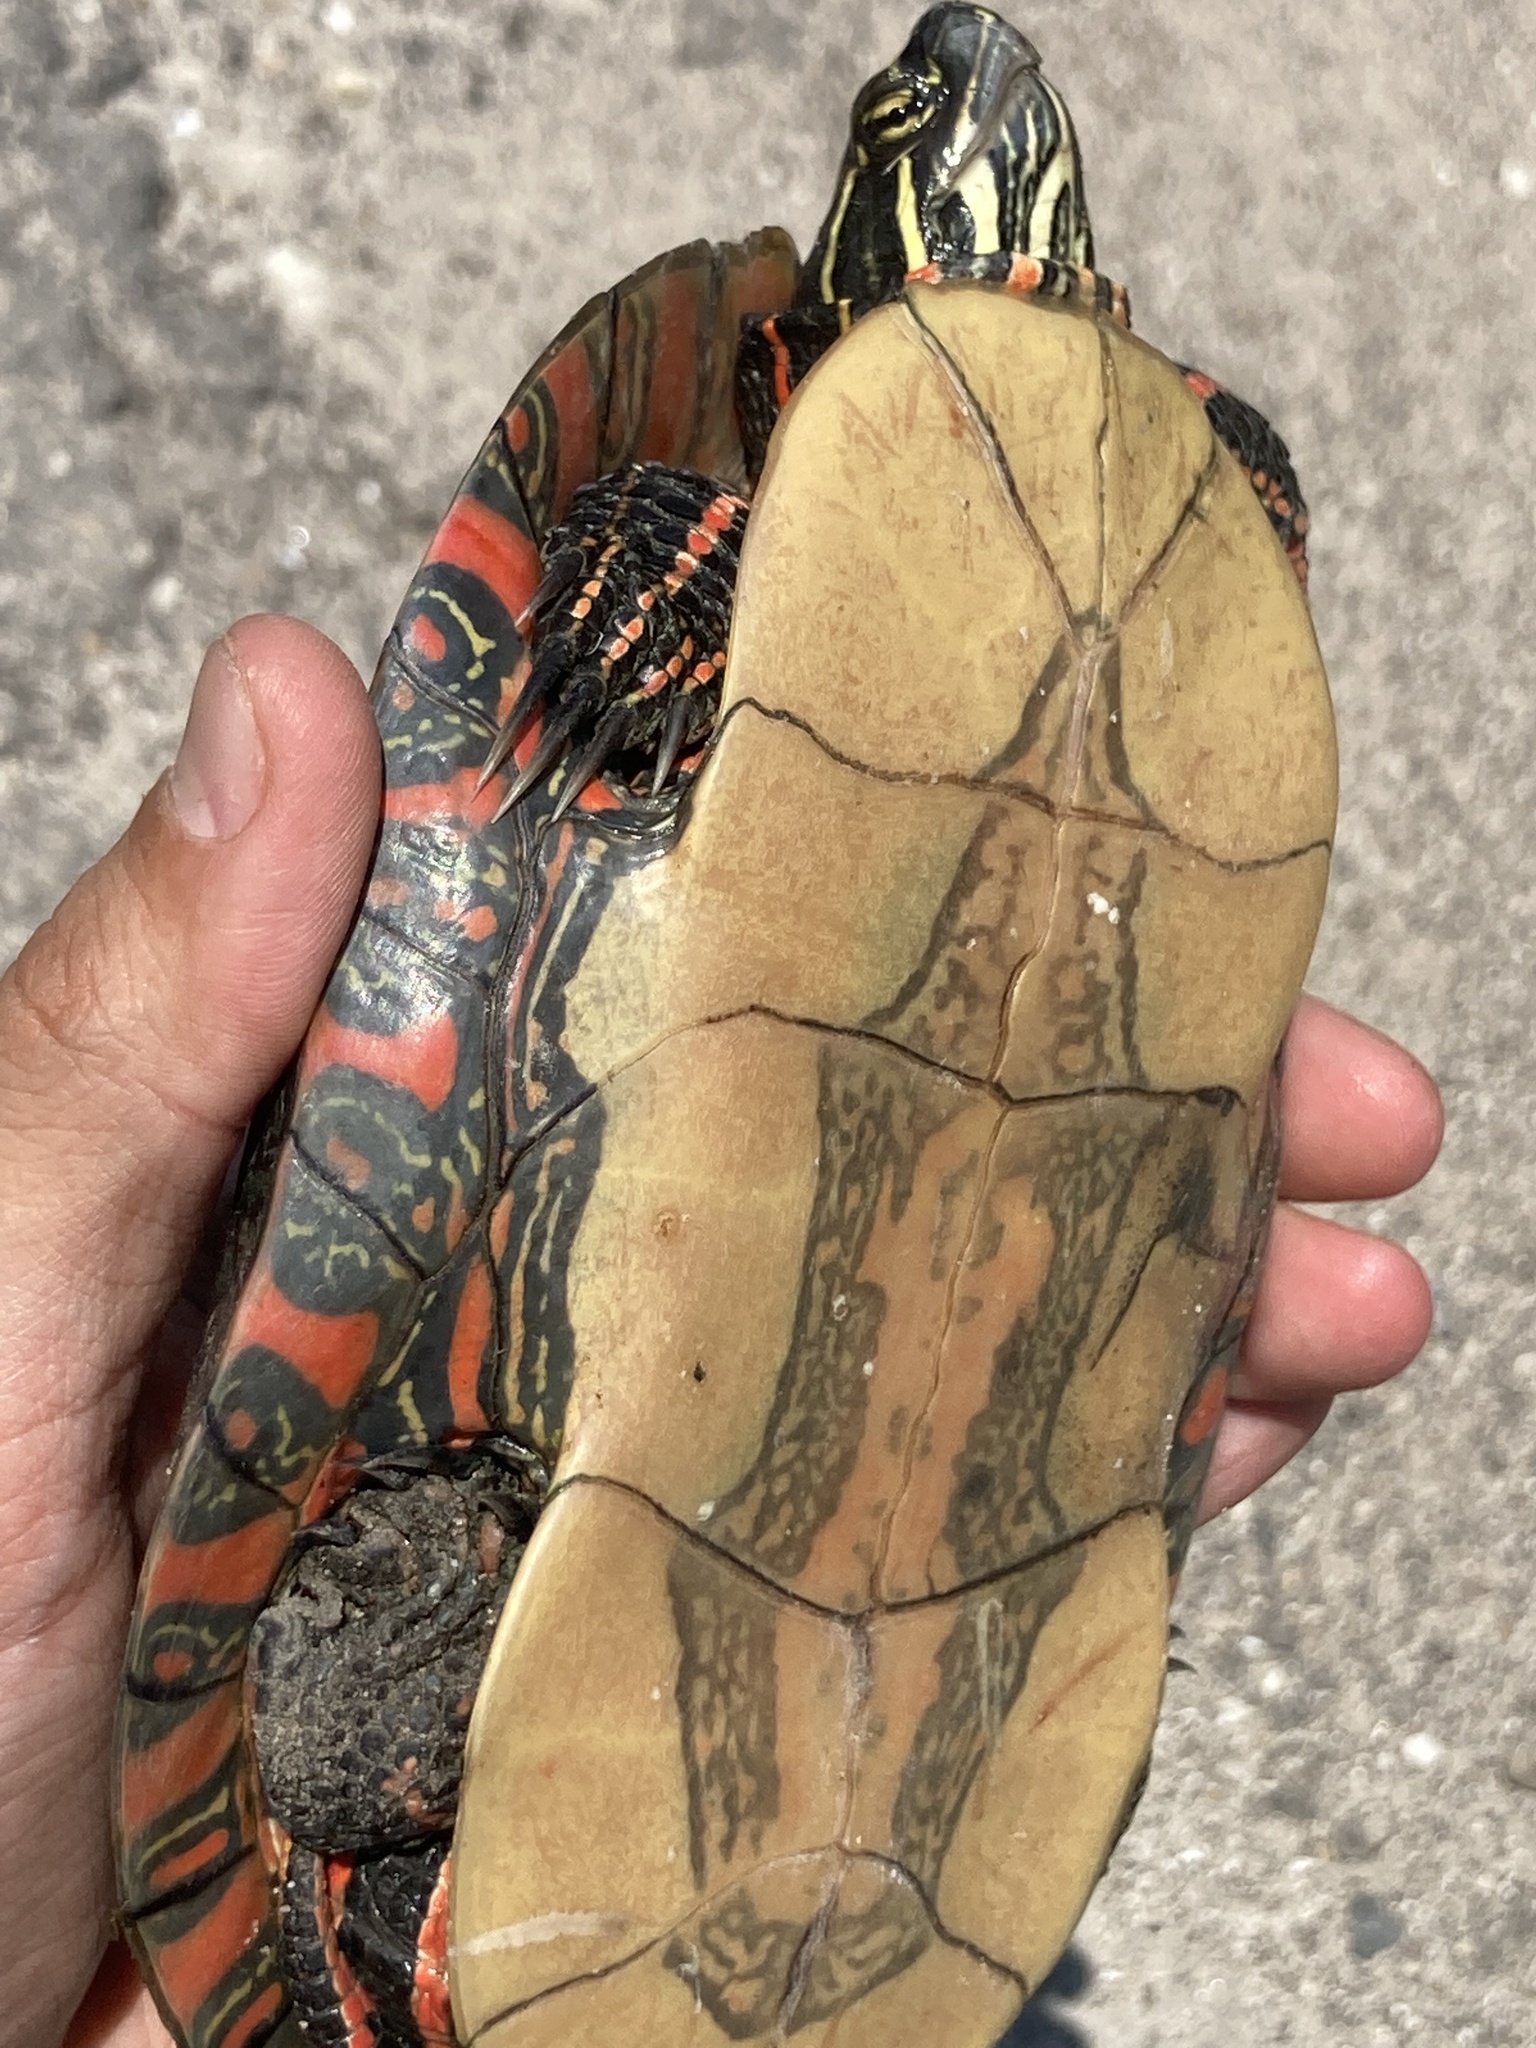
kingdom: Animalia
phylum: Chordata
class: Testudines
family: Emydidae
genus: Chrysemys
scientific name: Chrysemys picta
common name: Painted turtle
